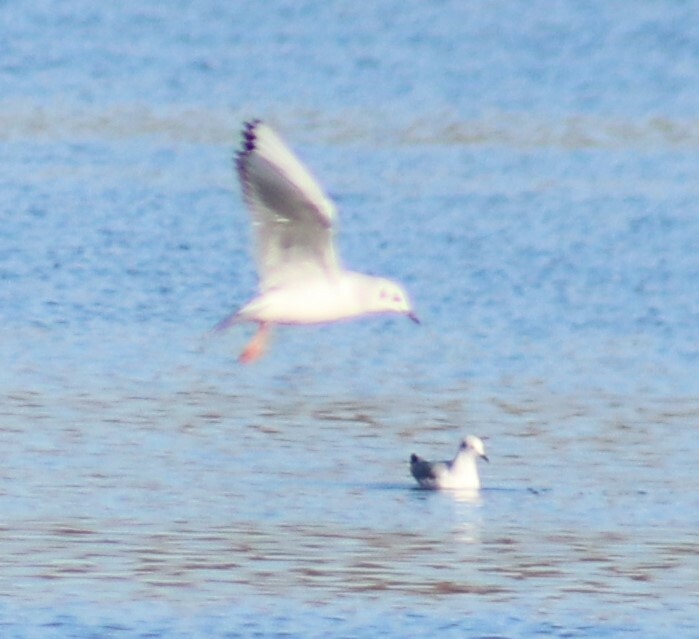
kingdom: Animalia
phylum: Chordata
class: Aves
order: Charadriiformes
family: Laridae
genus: Chroicocephalus
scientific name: Chroicocephalus philadelphia
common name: Bonaparte's gull
